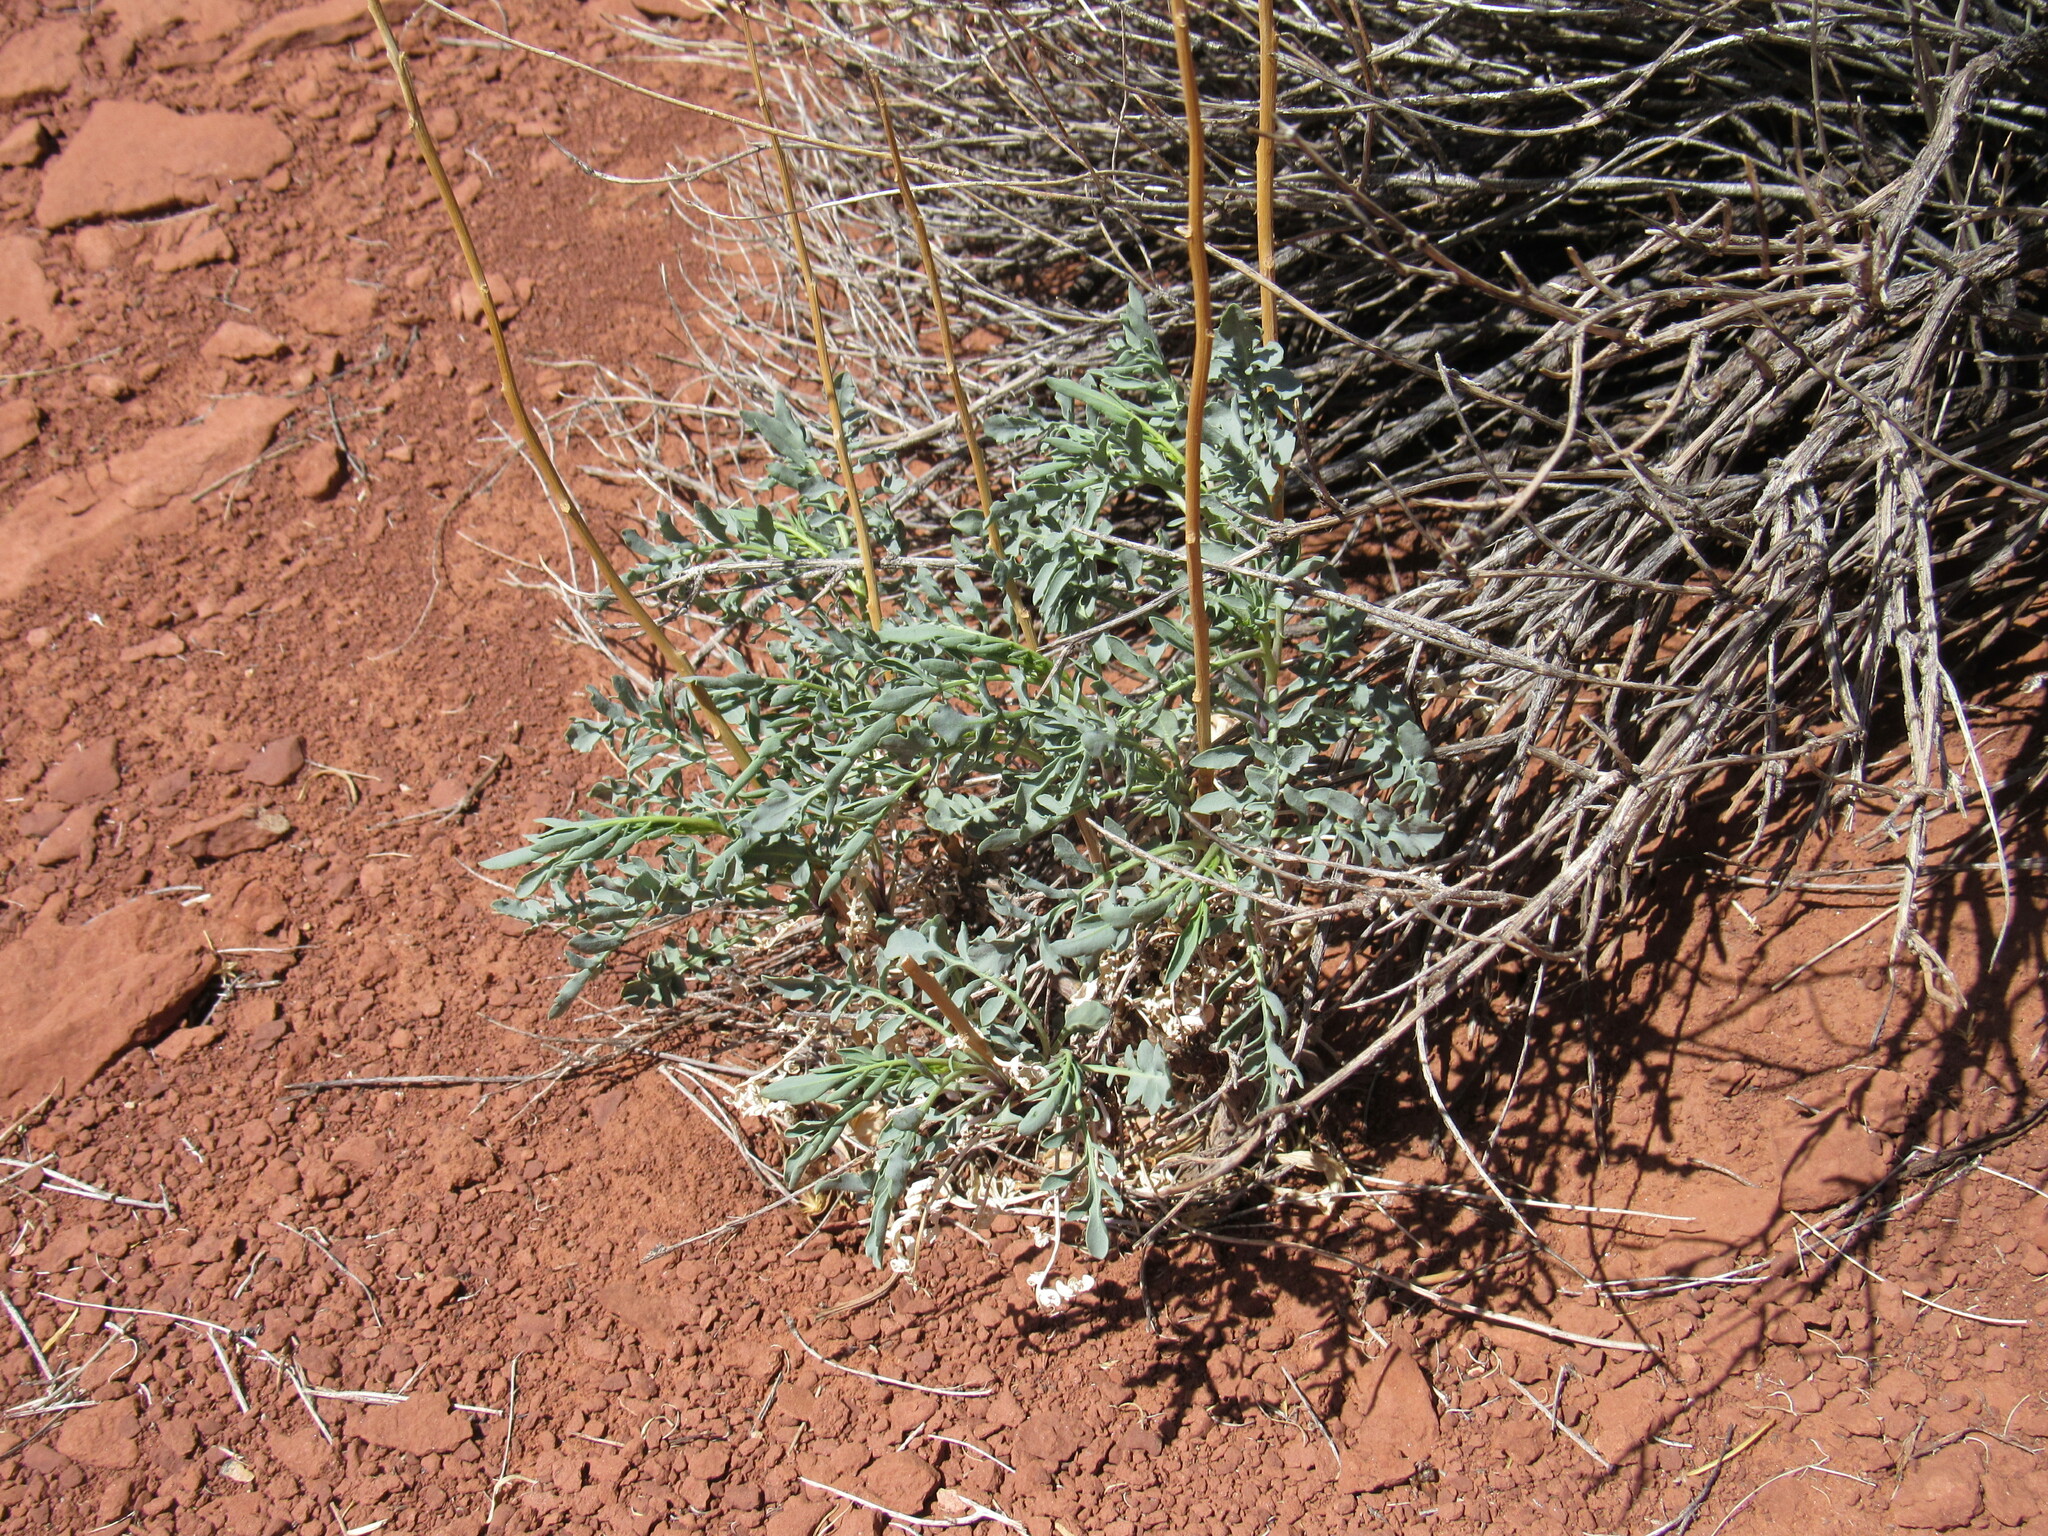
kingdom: Plantae
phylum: Tracheophyta
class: Magnoliopsida
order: Brassicales
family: Brassicaceae
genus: Stanleya
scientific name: Stanleya pinnata
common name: Prince's-plume
